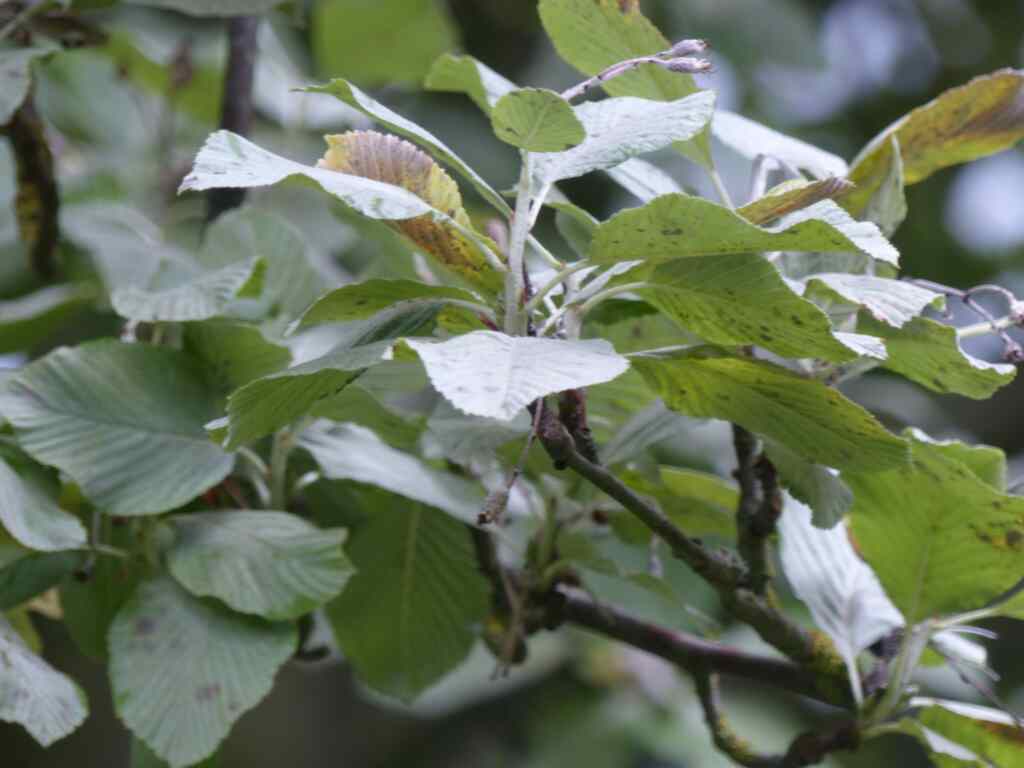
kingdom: Plantae
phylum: Tracheophyta
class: Magnoliopsida
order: Rosales
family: Rosaceae
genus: Aria
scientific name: Aria edulis
